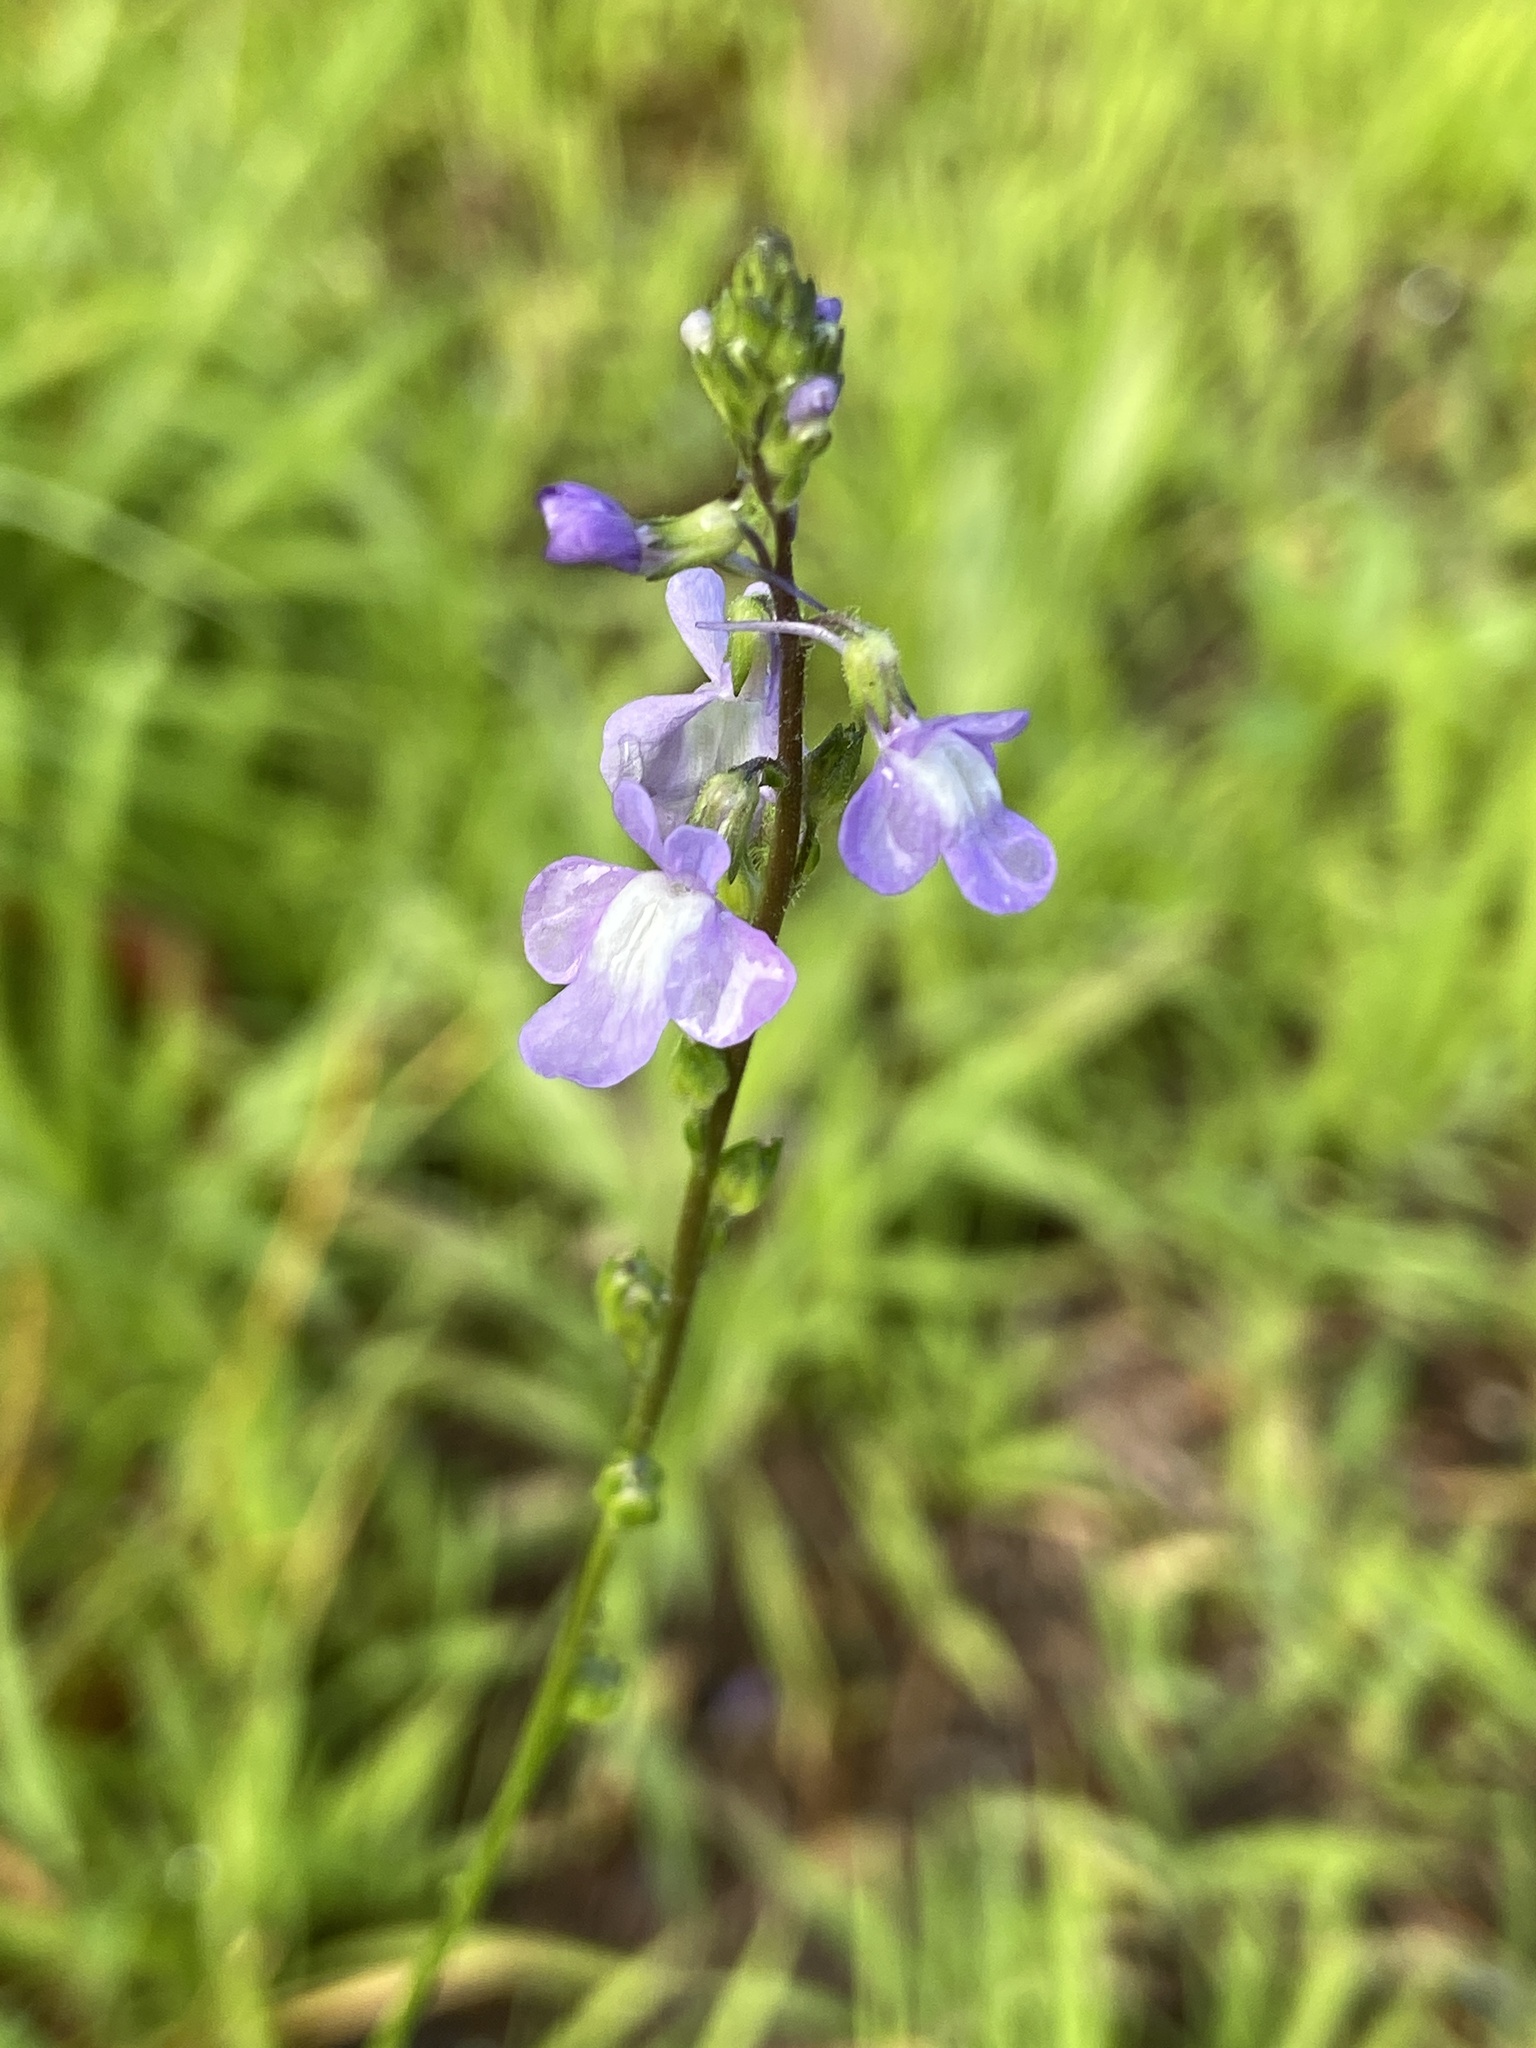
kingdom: Plantae
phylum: Tracheophyta
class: Magnoliopsida
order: Lamiales
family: Plantaginaceae
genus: Nuttallanthus
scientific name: Nuttallanthus canadensis
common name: Blue toadflax
